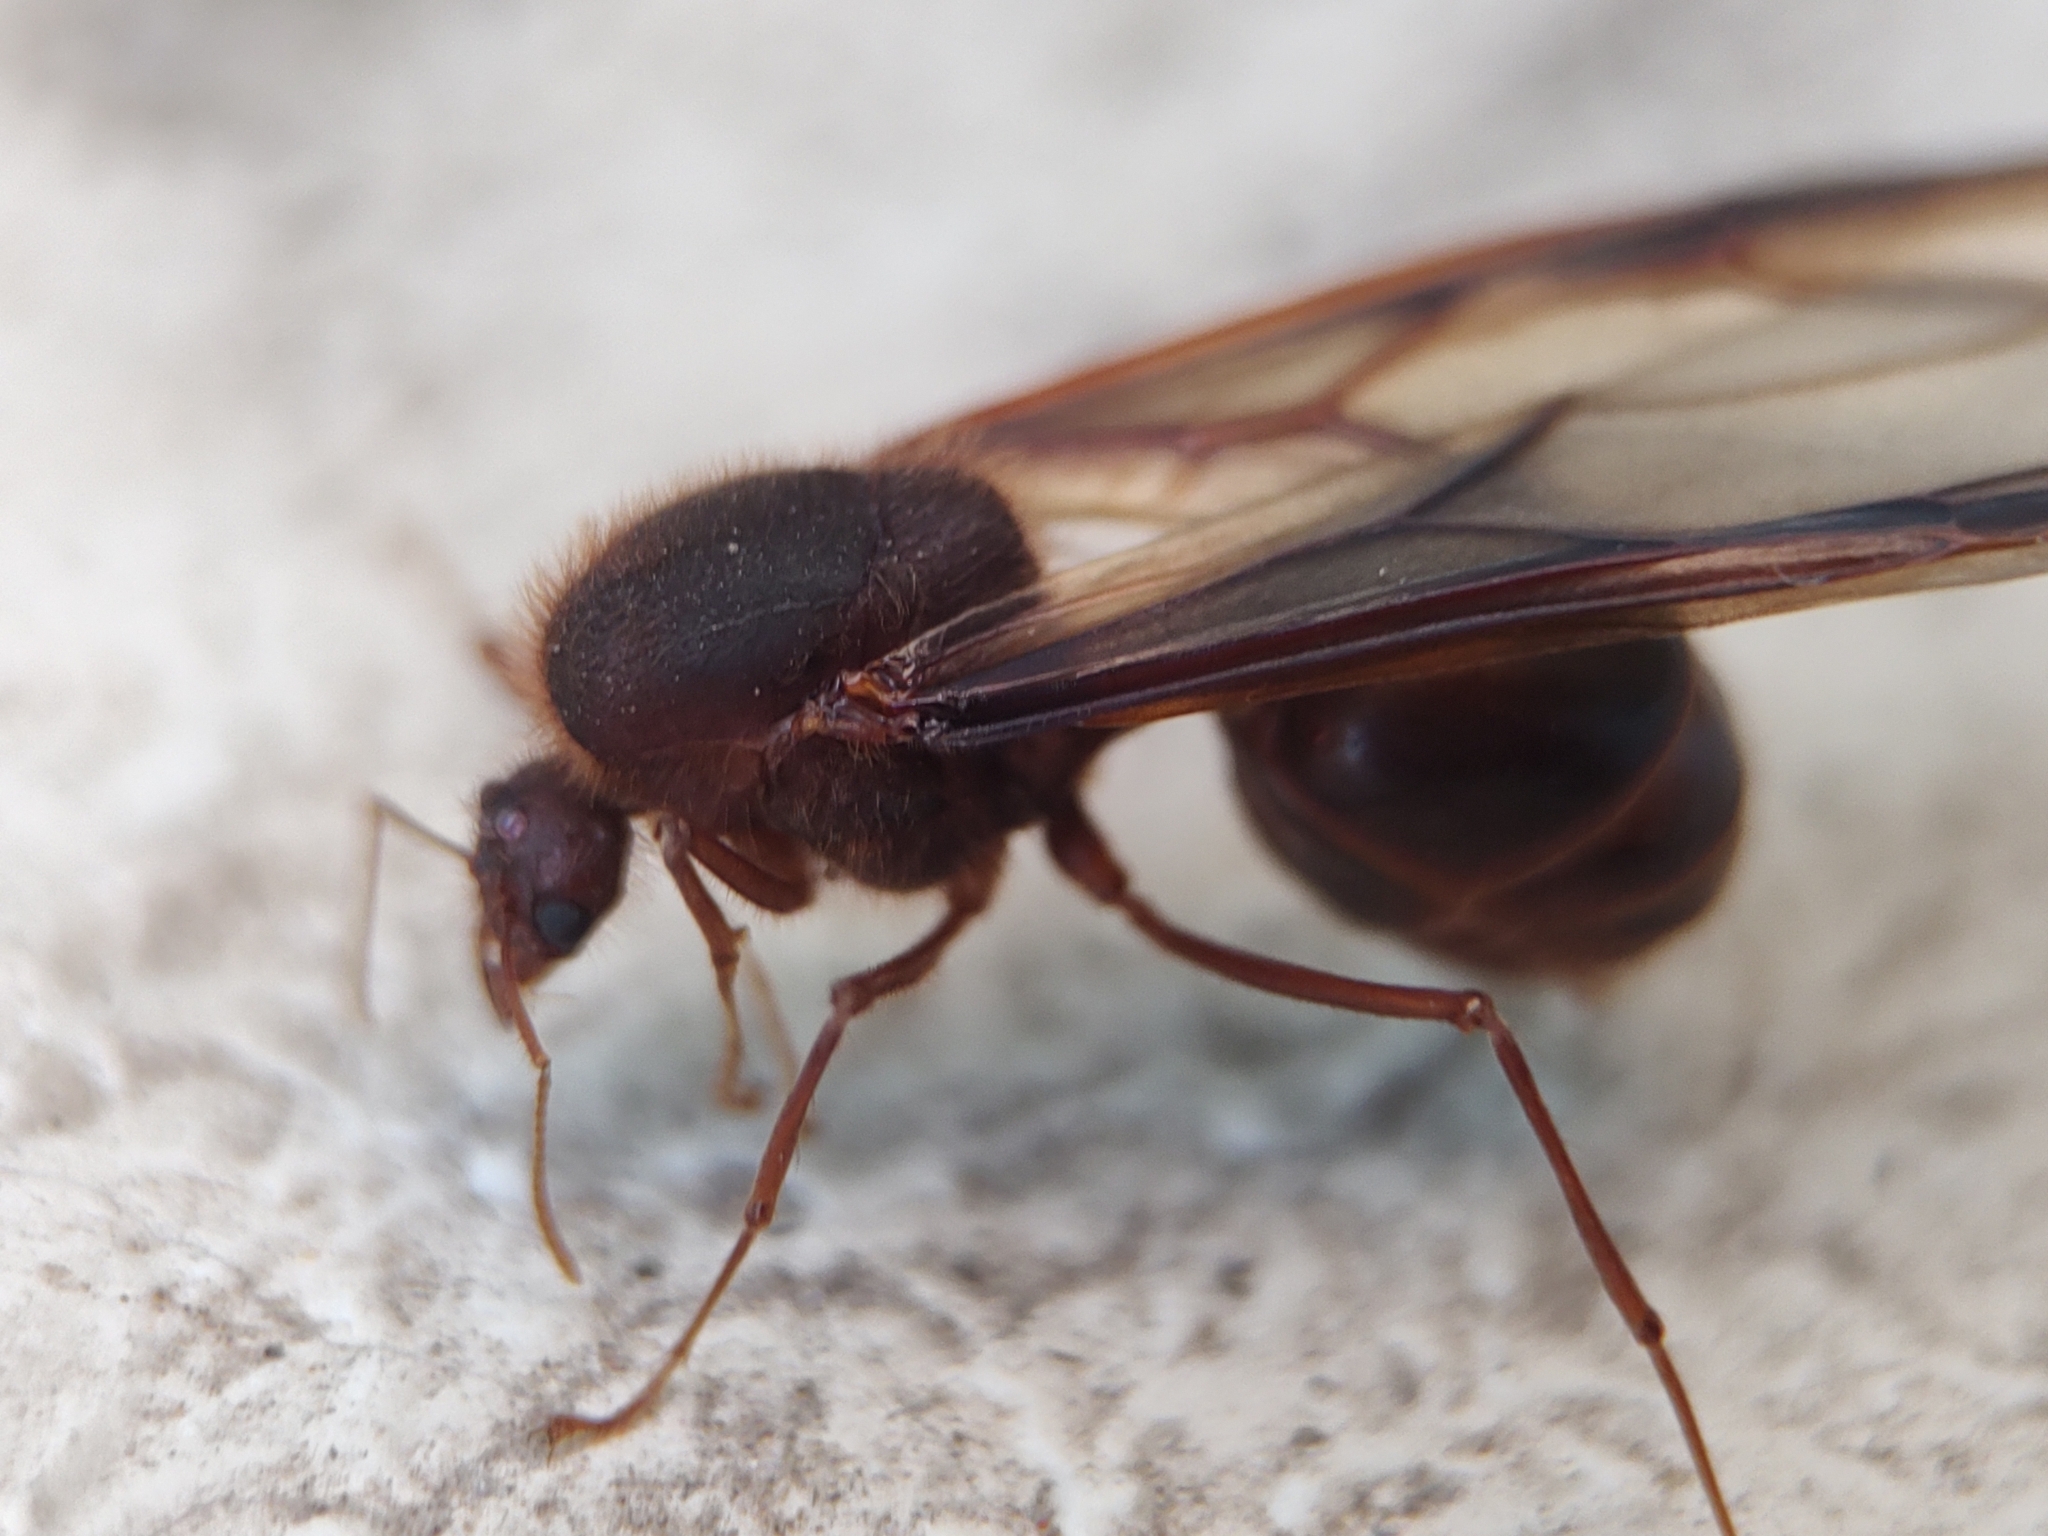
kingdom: Animalia
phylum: Arthropoda
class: Insecta
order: Hymenoptera
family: Formicidae
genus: Atta
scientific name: Atta mexicana
